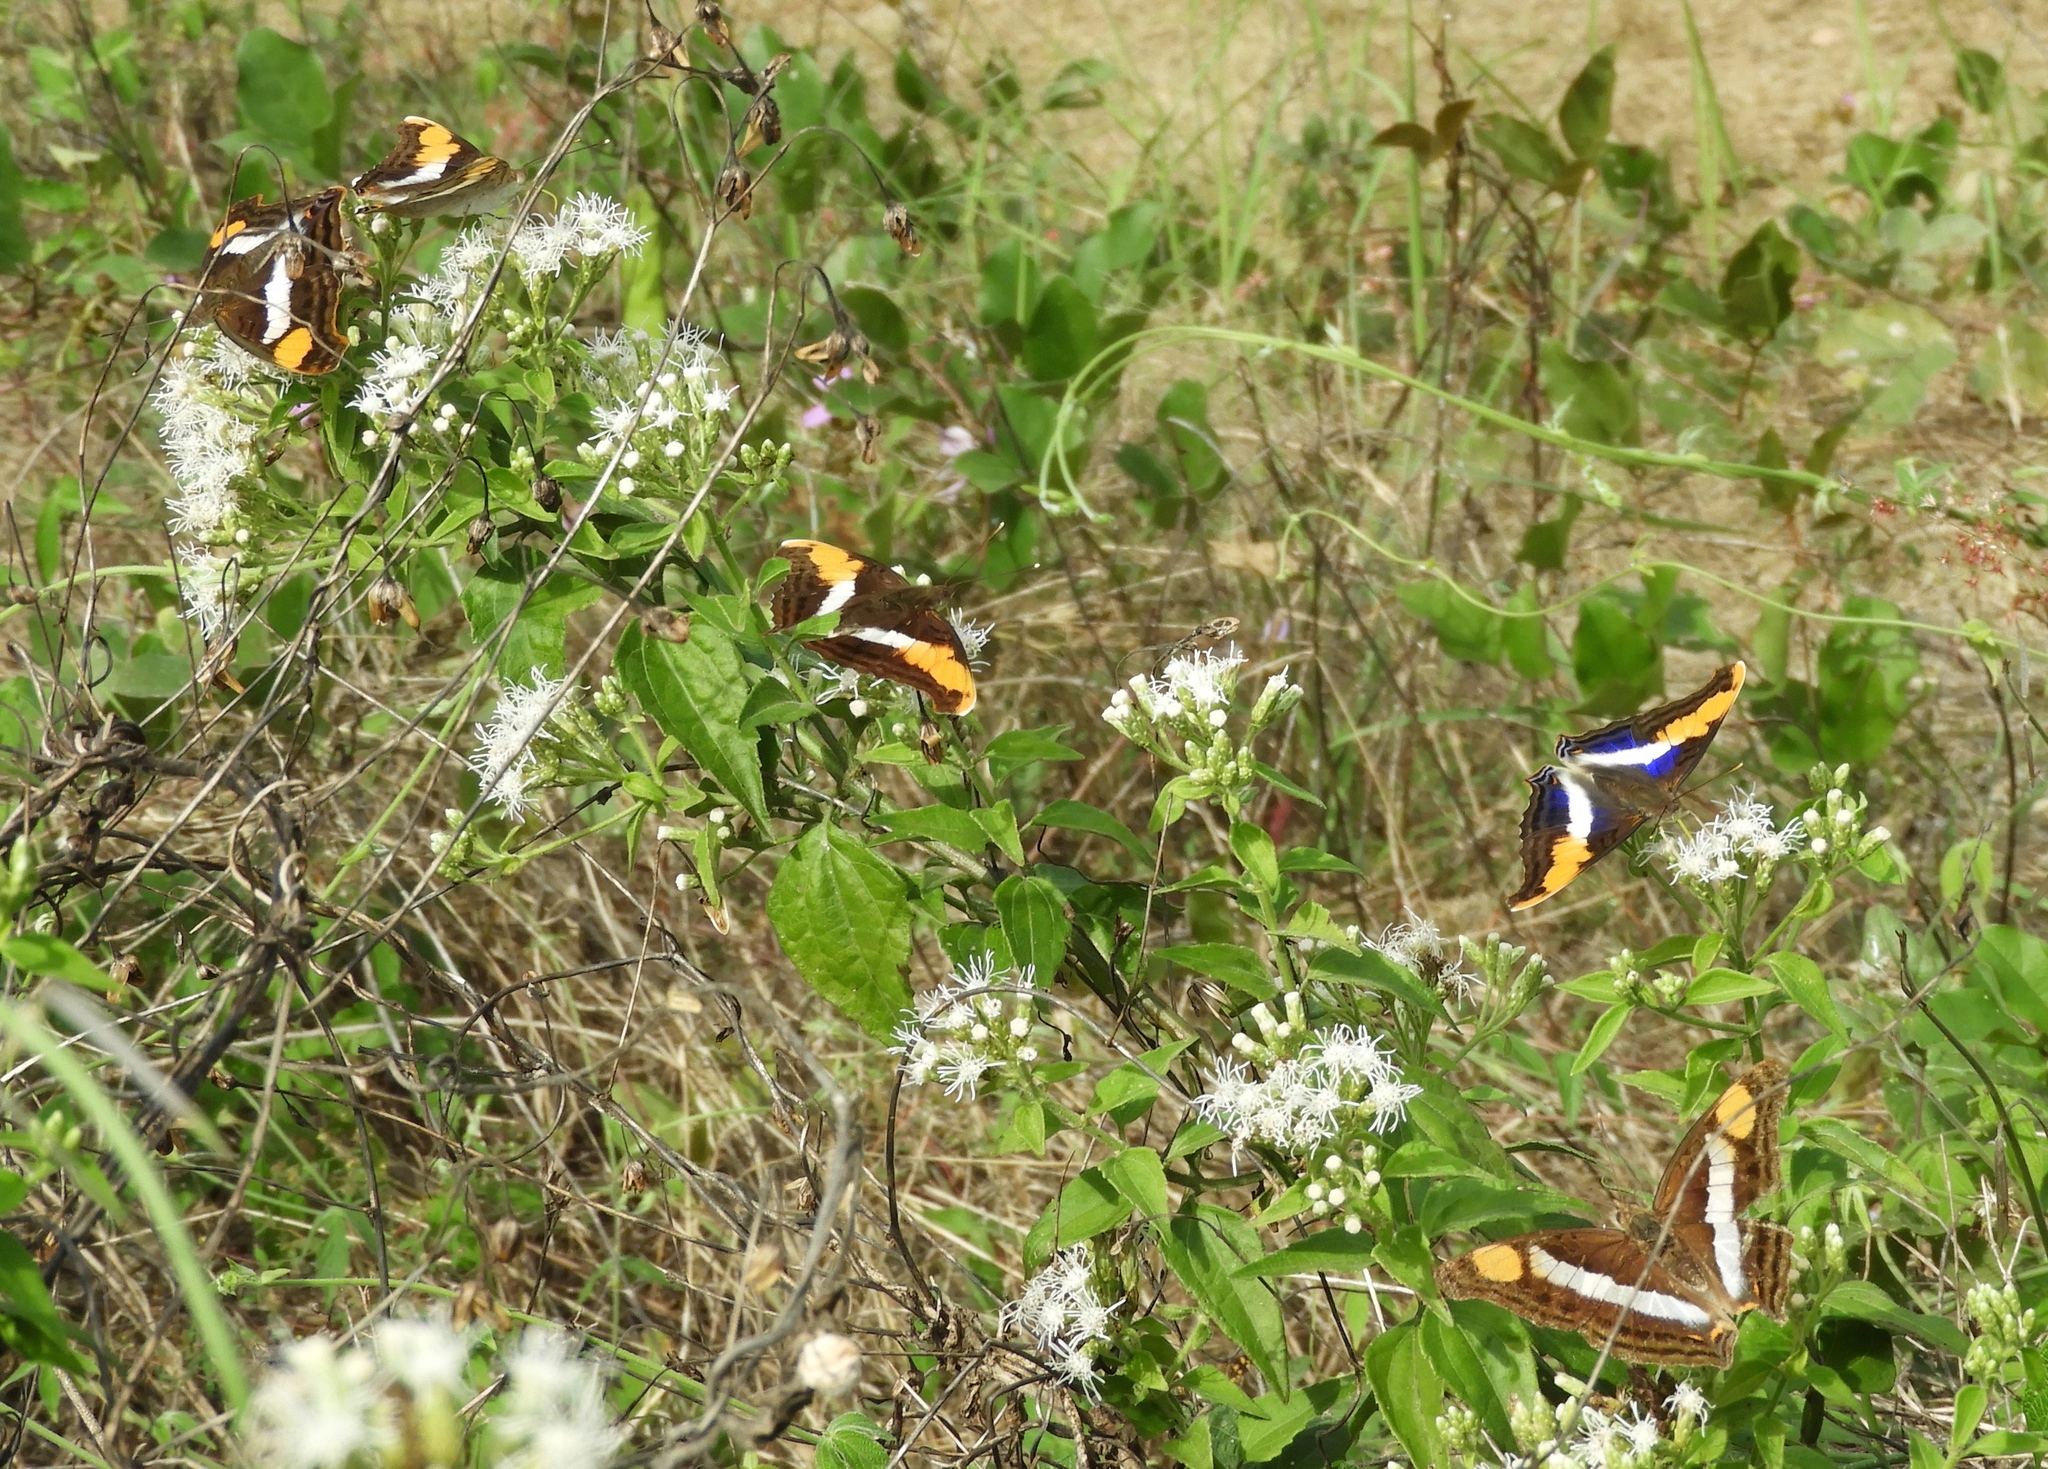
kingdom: Animalia
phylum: Arthropoda
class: Insecta
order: Lepidoptera
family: Nymphalidae
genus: Doxocopa
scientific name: Doxocopa laure
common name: Silver emperor
